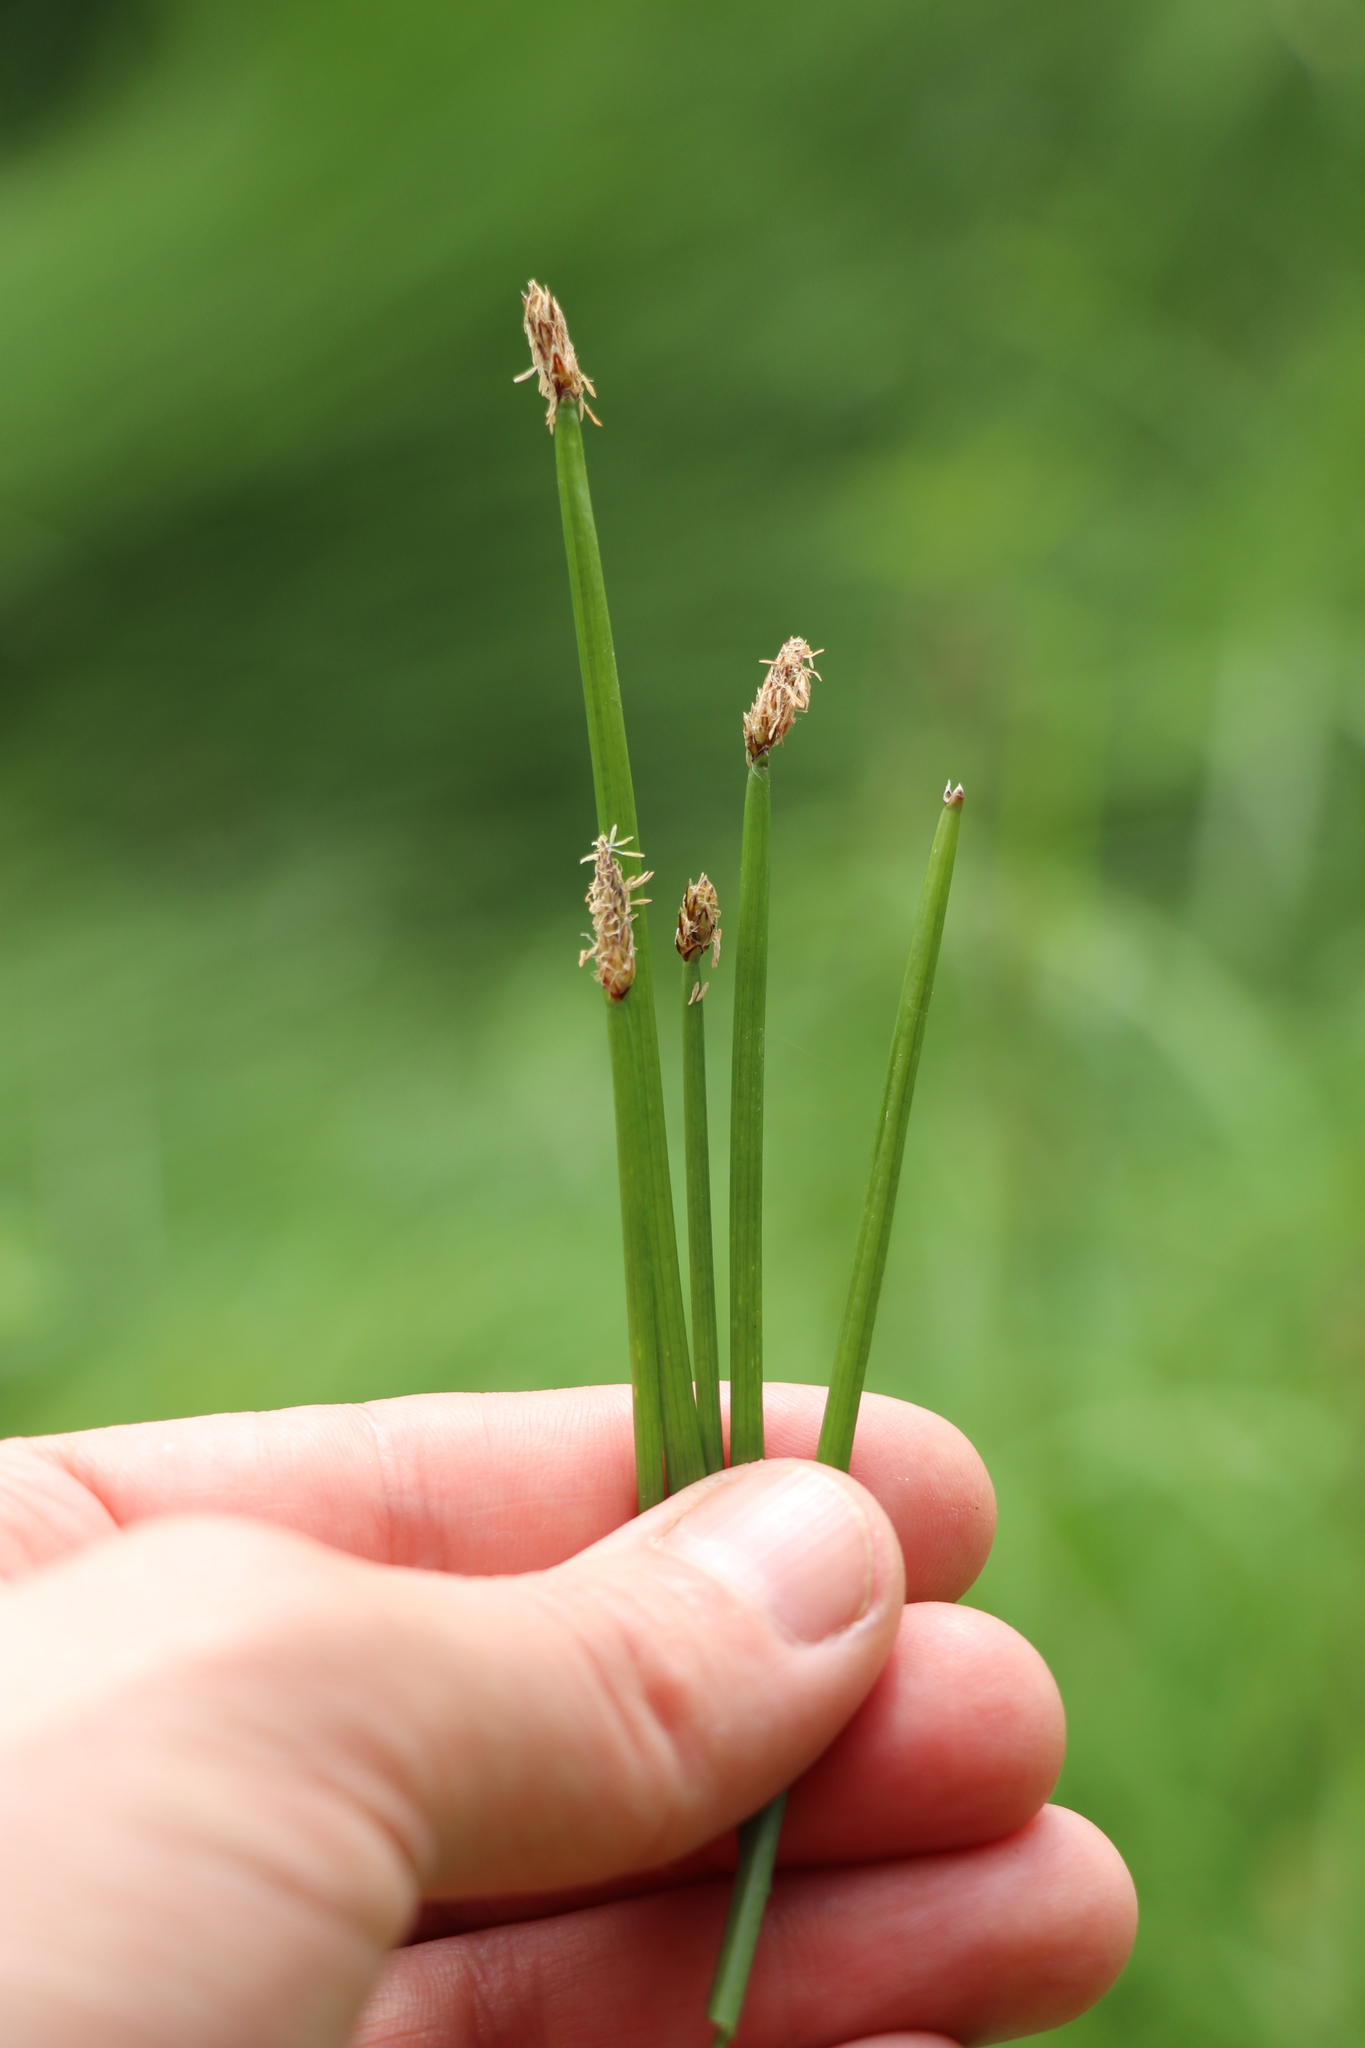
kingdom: Plantae
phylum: Tracheophyta
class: Liliopsida
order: Poales
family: Cyperaceae
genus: Eleocharis
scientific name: Eleocharis palustris
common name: Common spike-rush
